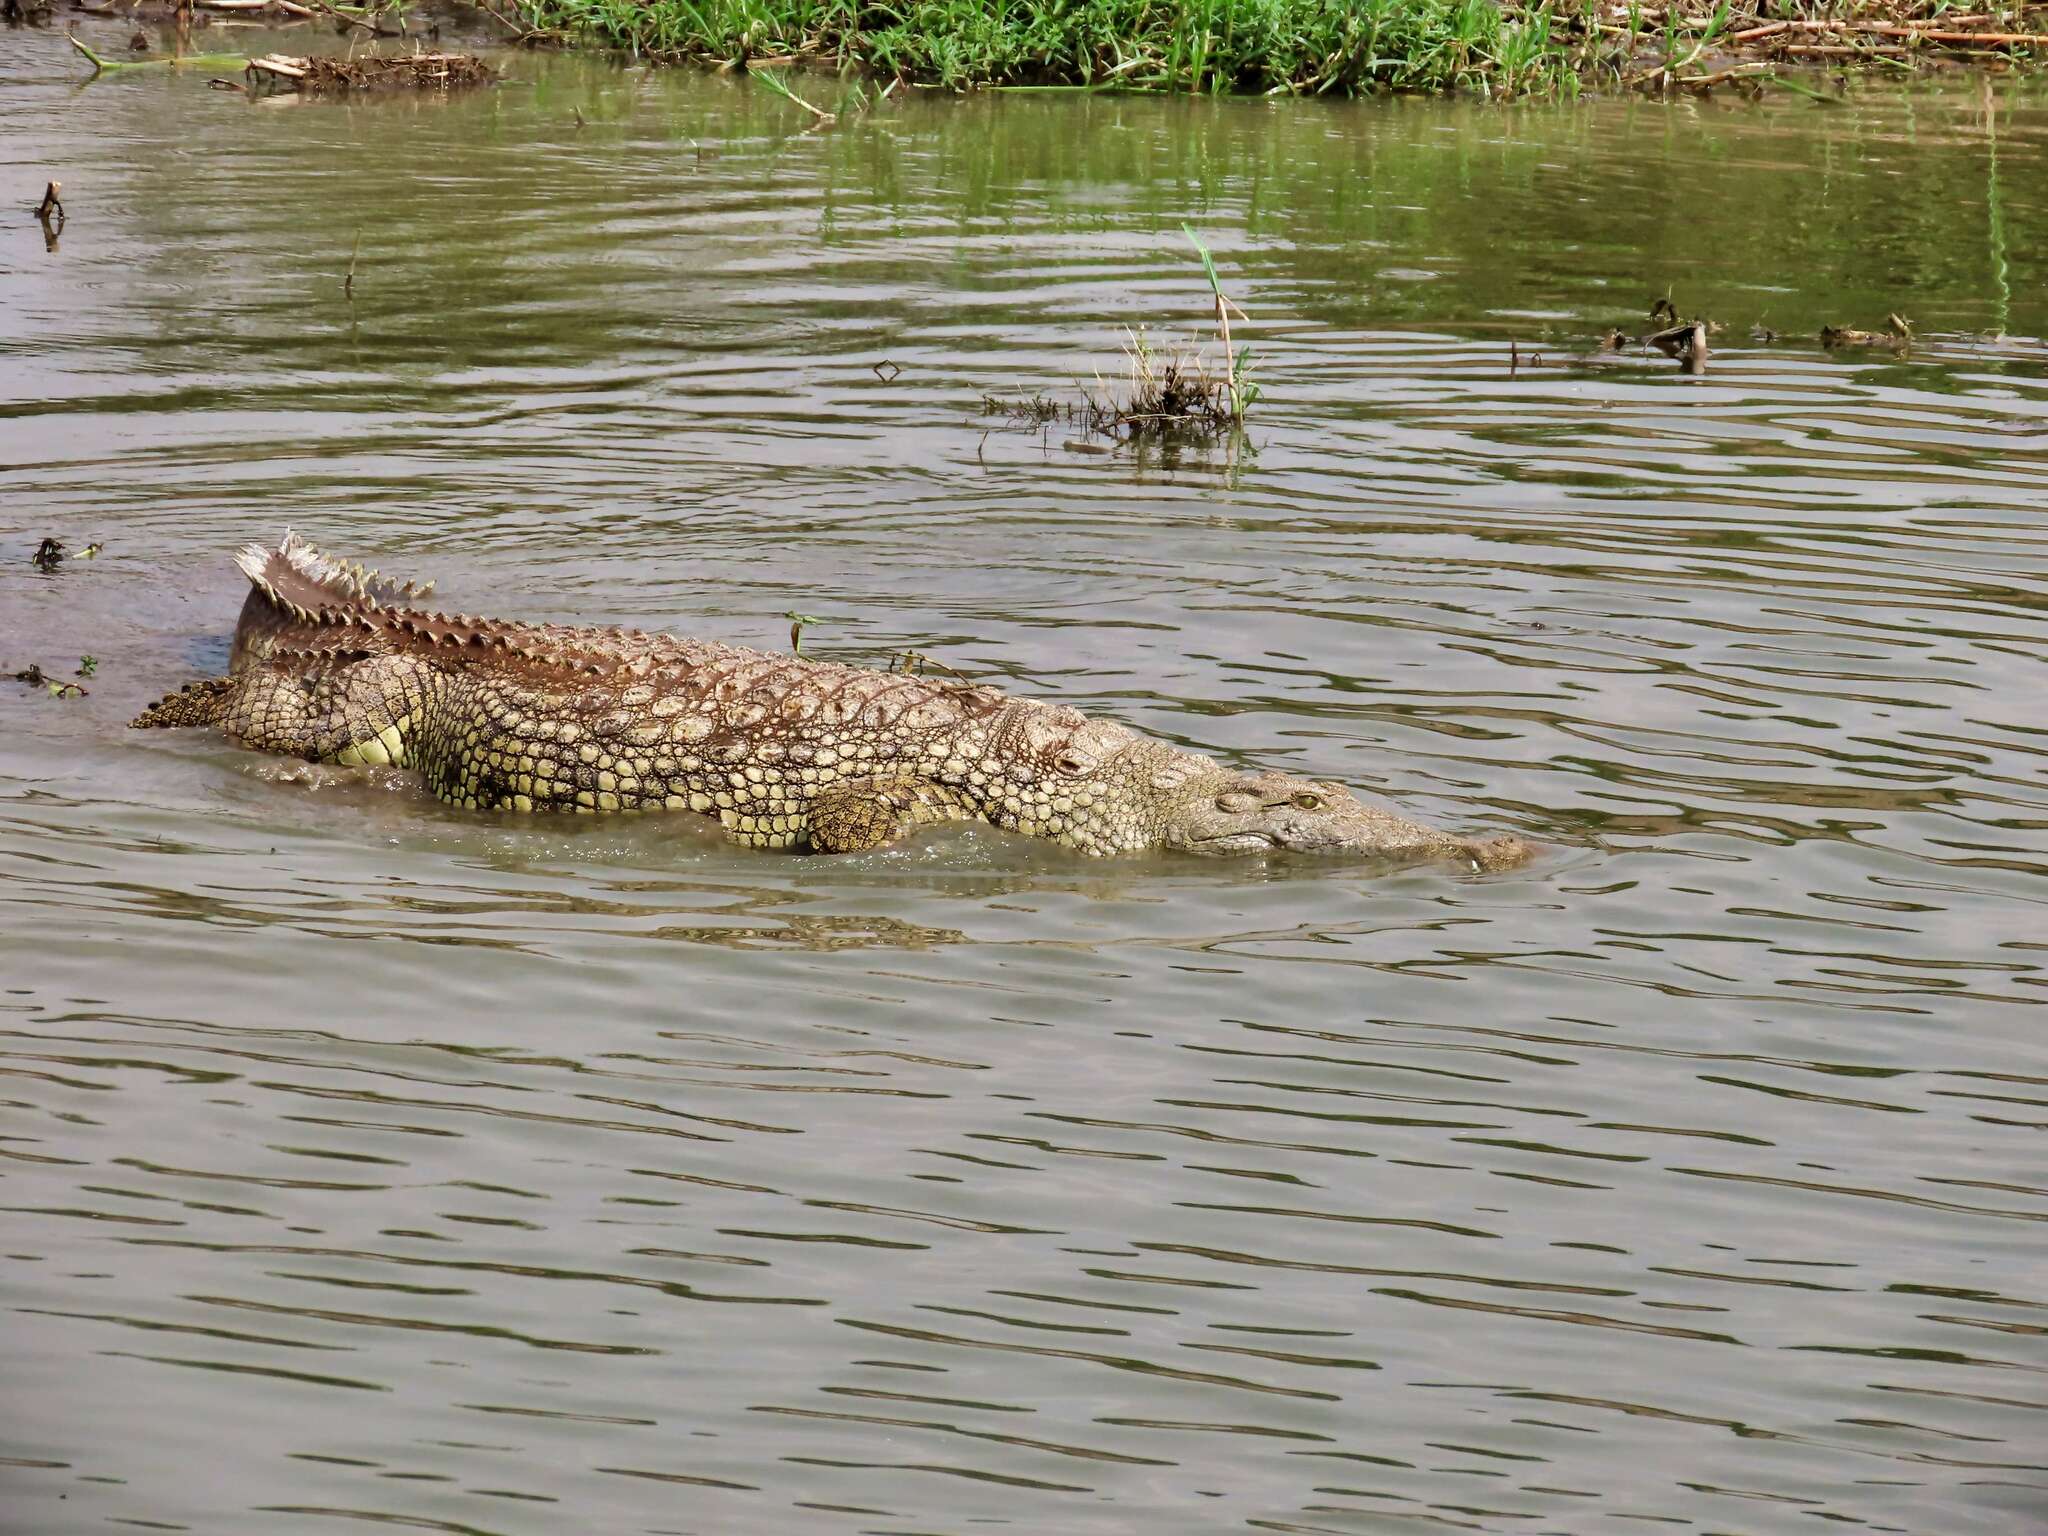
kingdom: Animalia
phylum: Chordata
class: Crocodylia
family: Crocodylidae
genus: Crocodylus
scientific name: Crocodylus niloticus
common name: Nile crocodile
